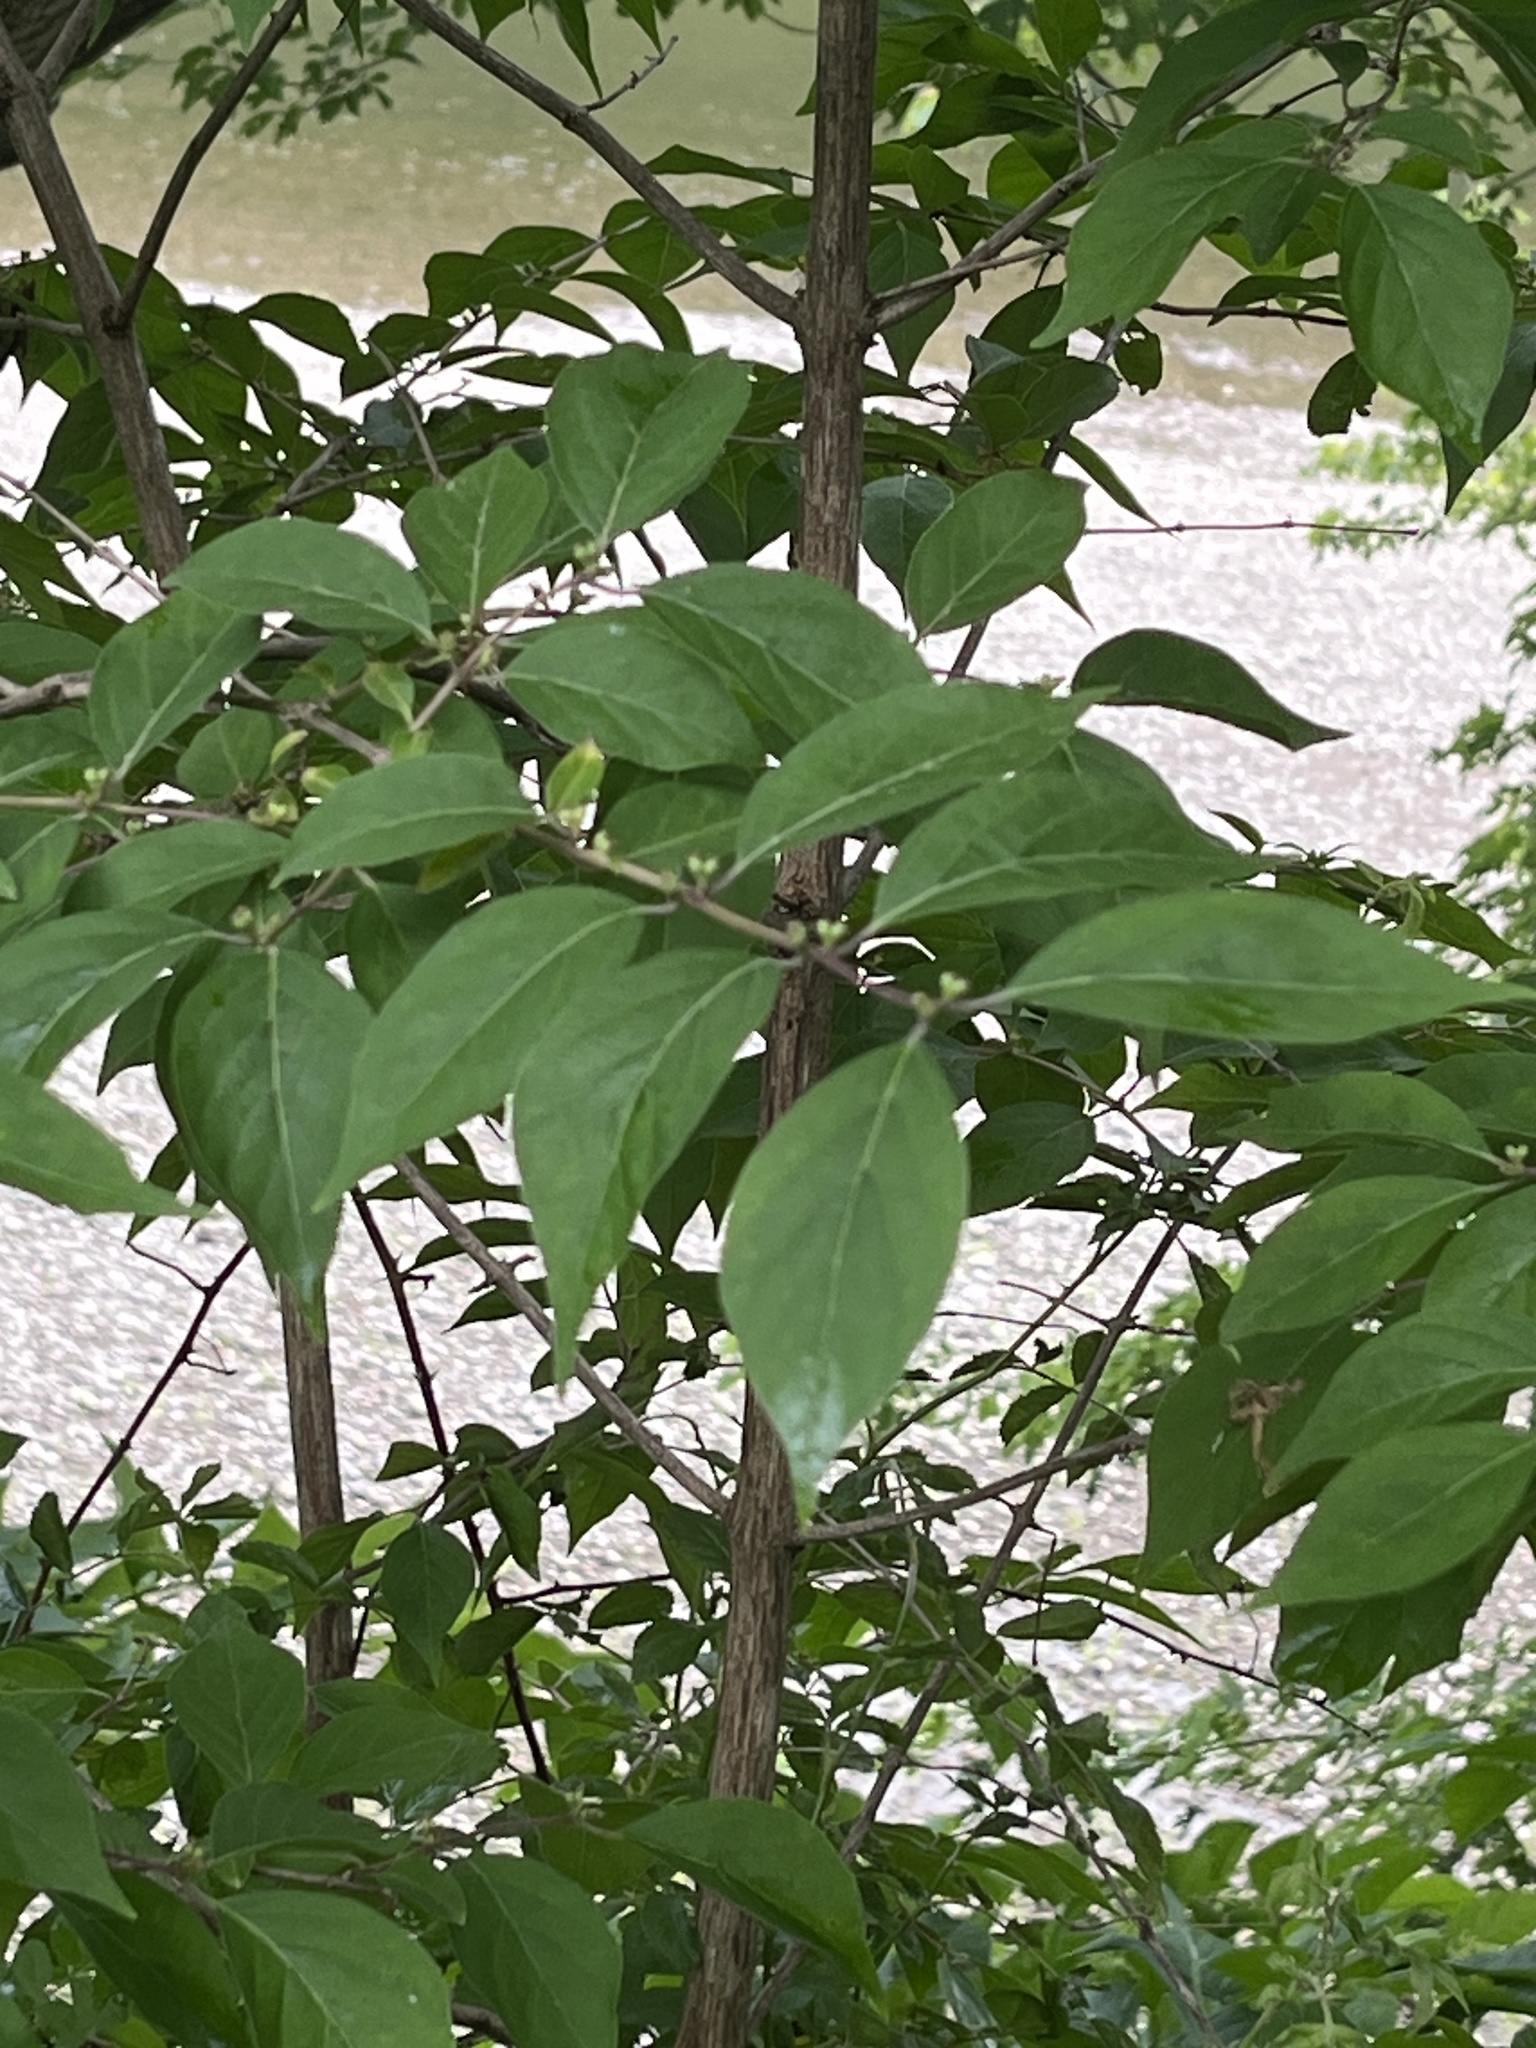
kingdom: Plantae
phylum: Tracheophyta
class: Magnoliopsida
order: Dipsacales
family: Caprifoliaceae
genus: Lonicera
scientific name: Lonicera maackii
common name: Amur honeysuckle
